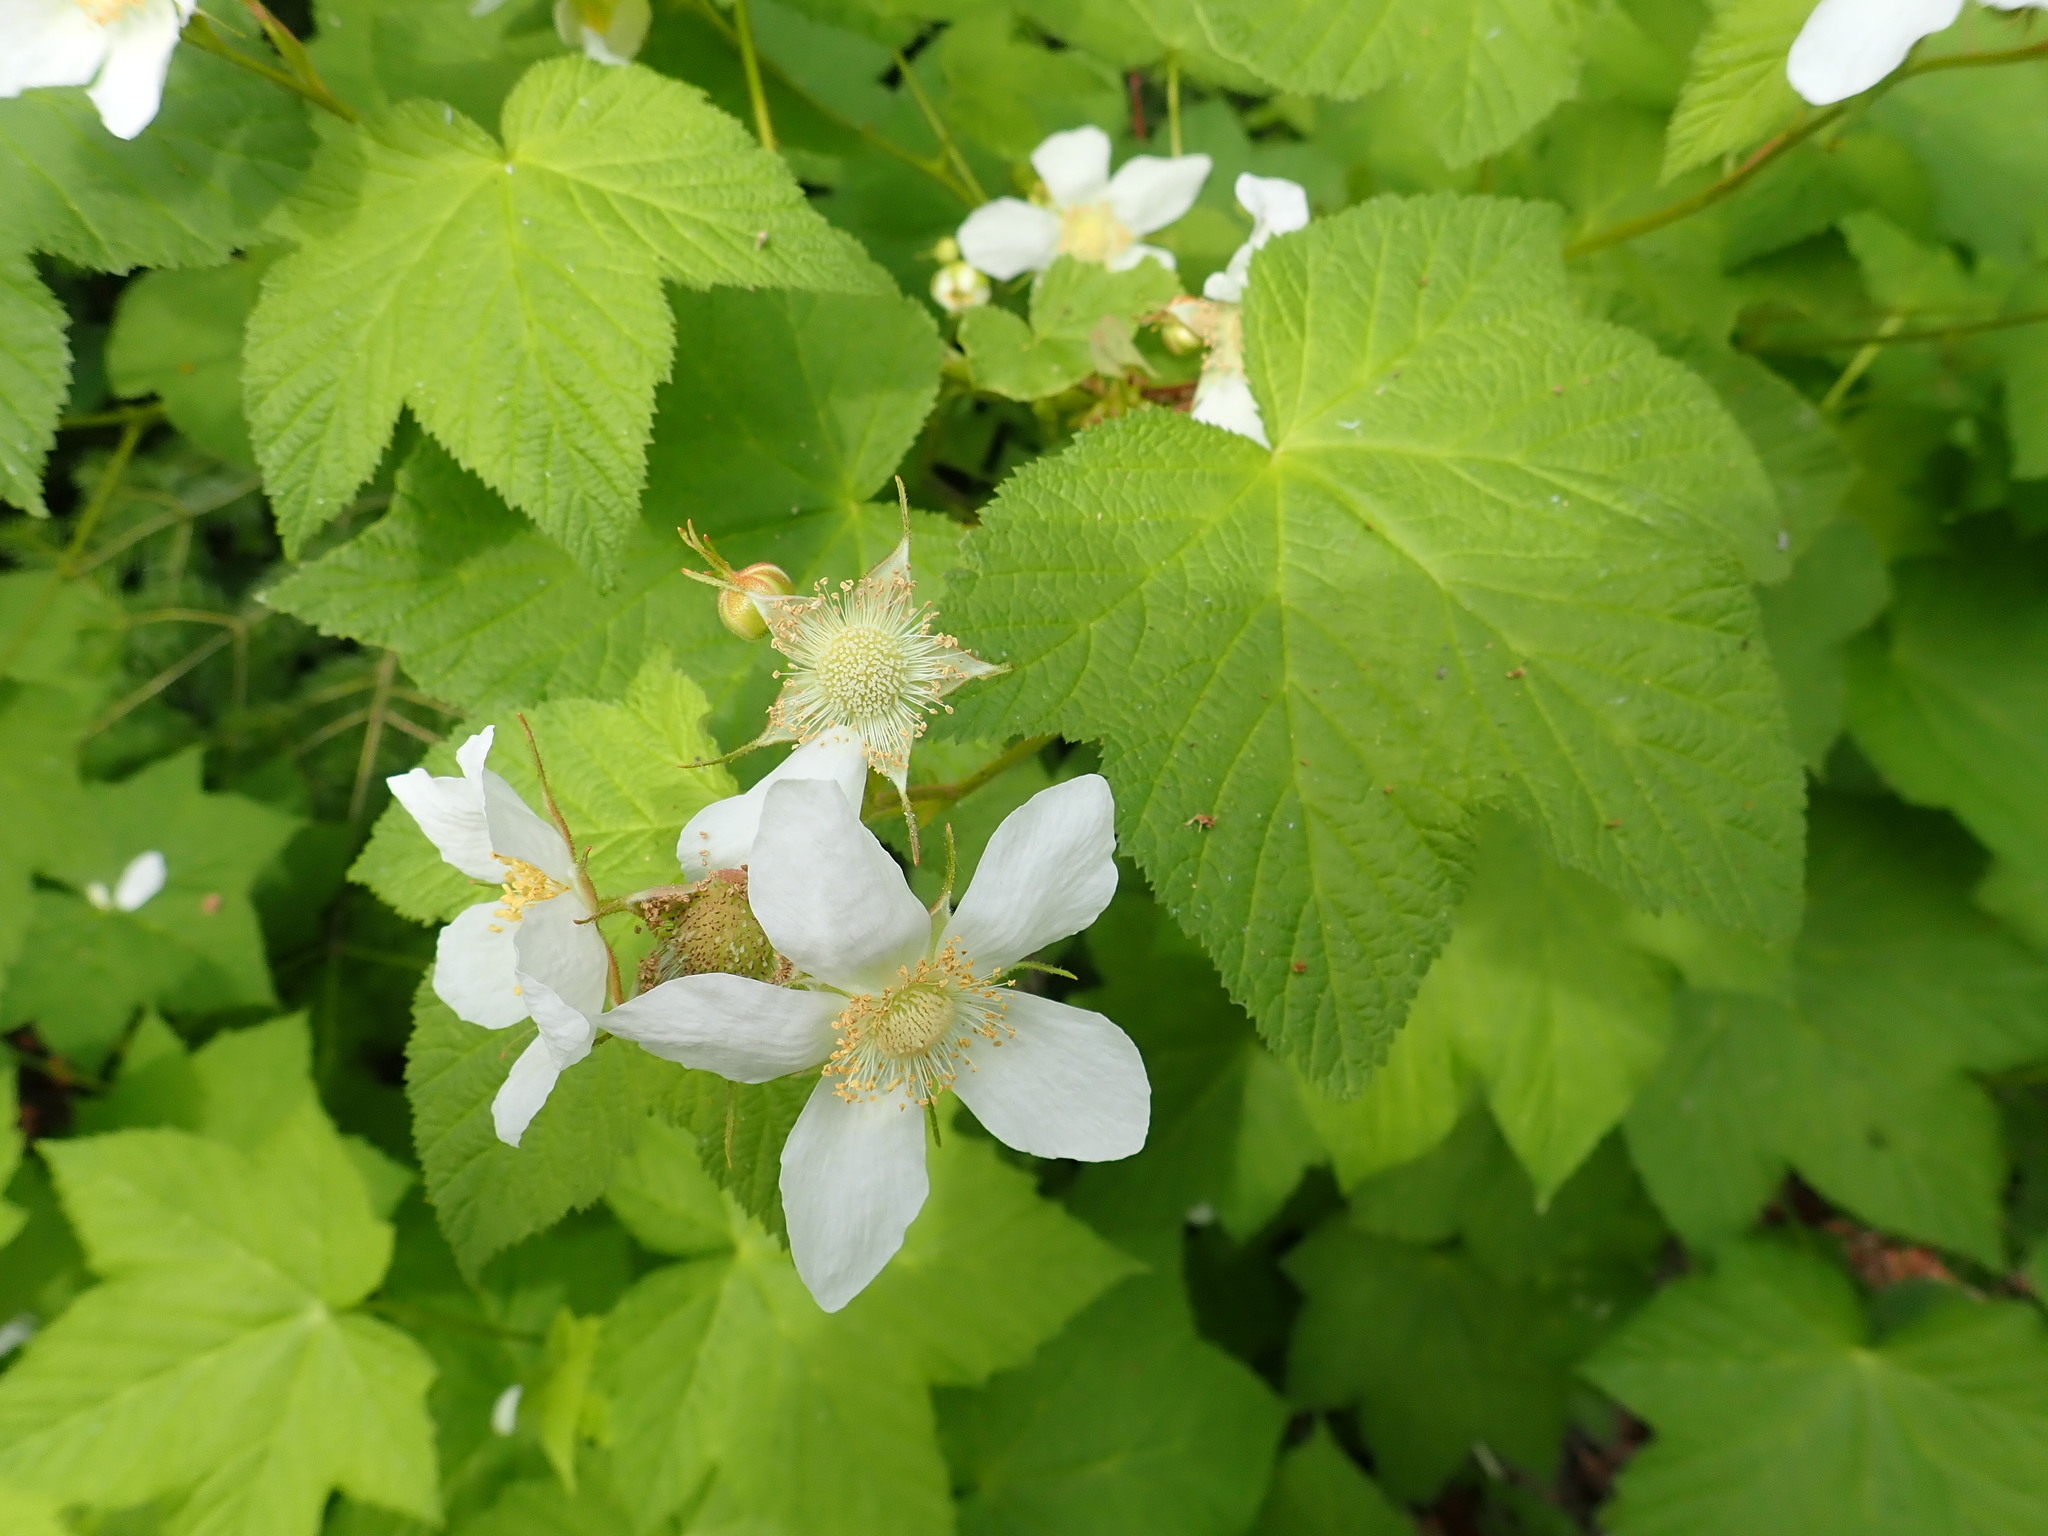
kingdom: Plantae
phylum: Tracheophyta
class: Magnoliopsida
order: Rosales
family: Rosaceae
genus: Rubus
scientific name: Rubus parviflorus
